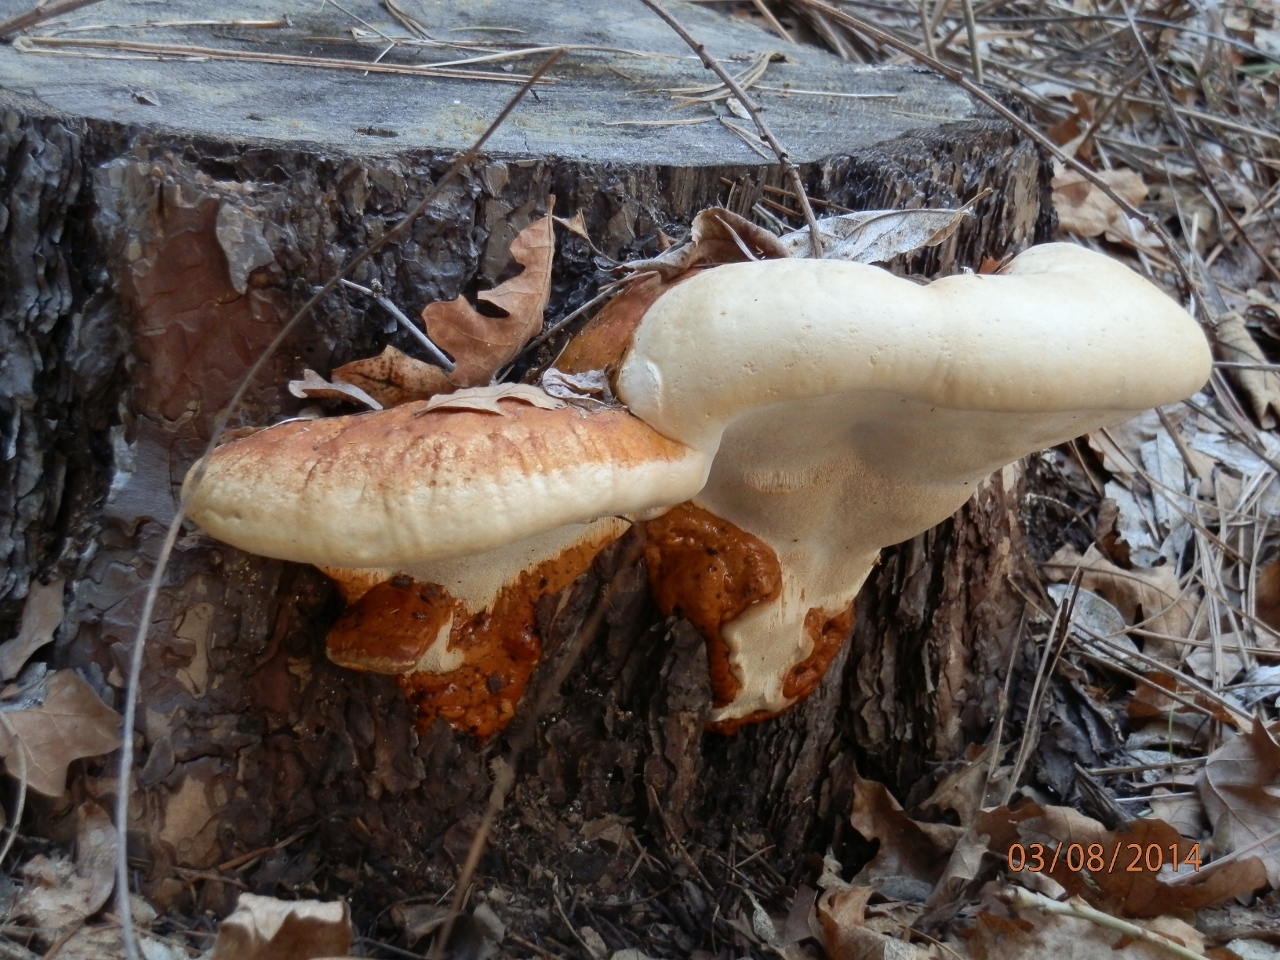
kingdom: Fungi
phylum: Basidiomycota
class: Agaricomycetes
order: Polyporales
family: Fomitopsidaceae
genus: Fomitopsis
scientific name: Fomitopsis schrenkii
